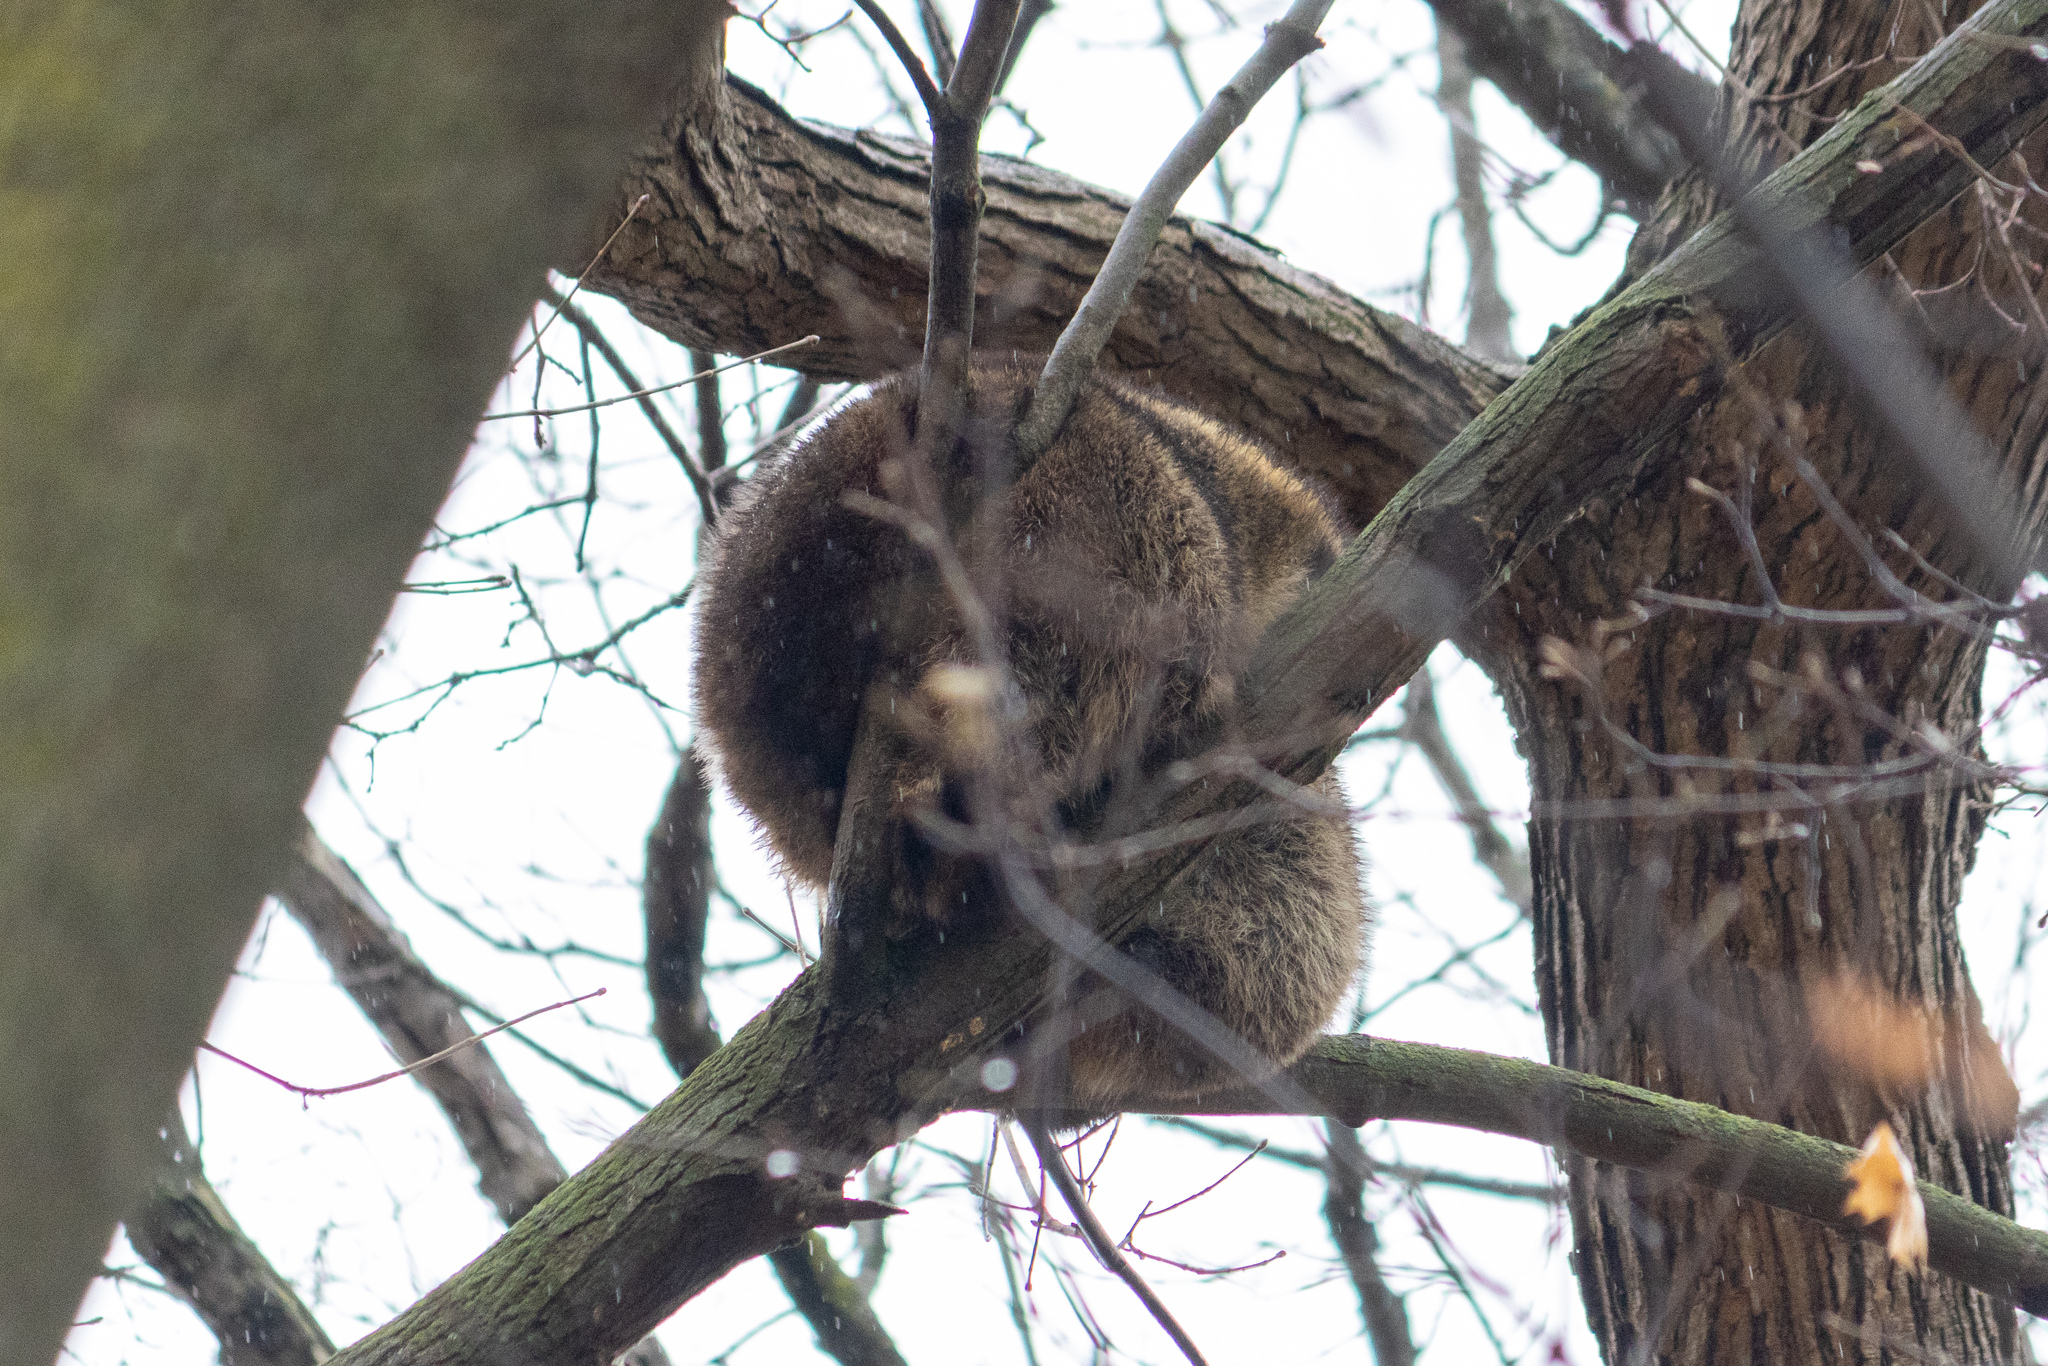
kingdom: Animalia
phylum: Chordata
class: Mammalia
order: Carnivora
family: Procyonidae
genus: Procyon
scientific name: Procyon lotor
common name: Raccoon
